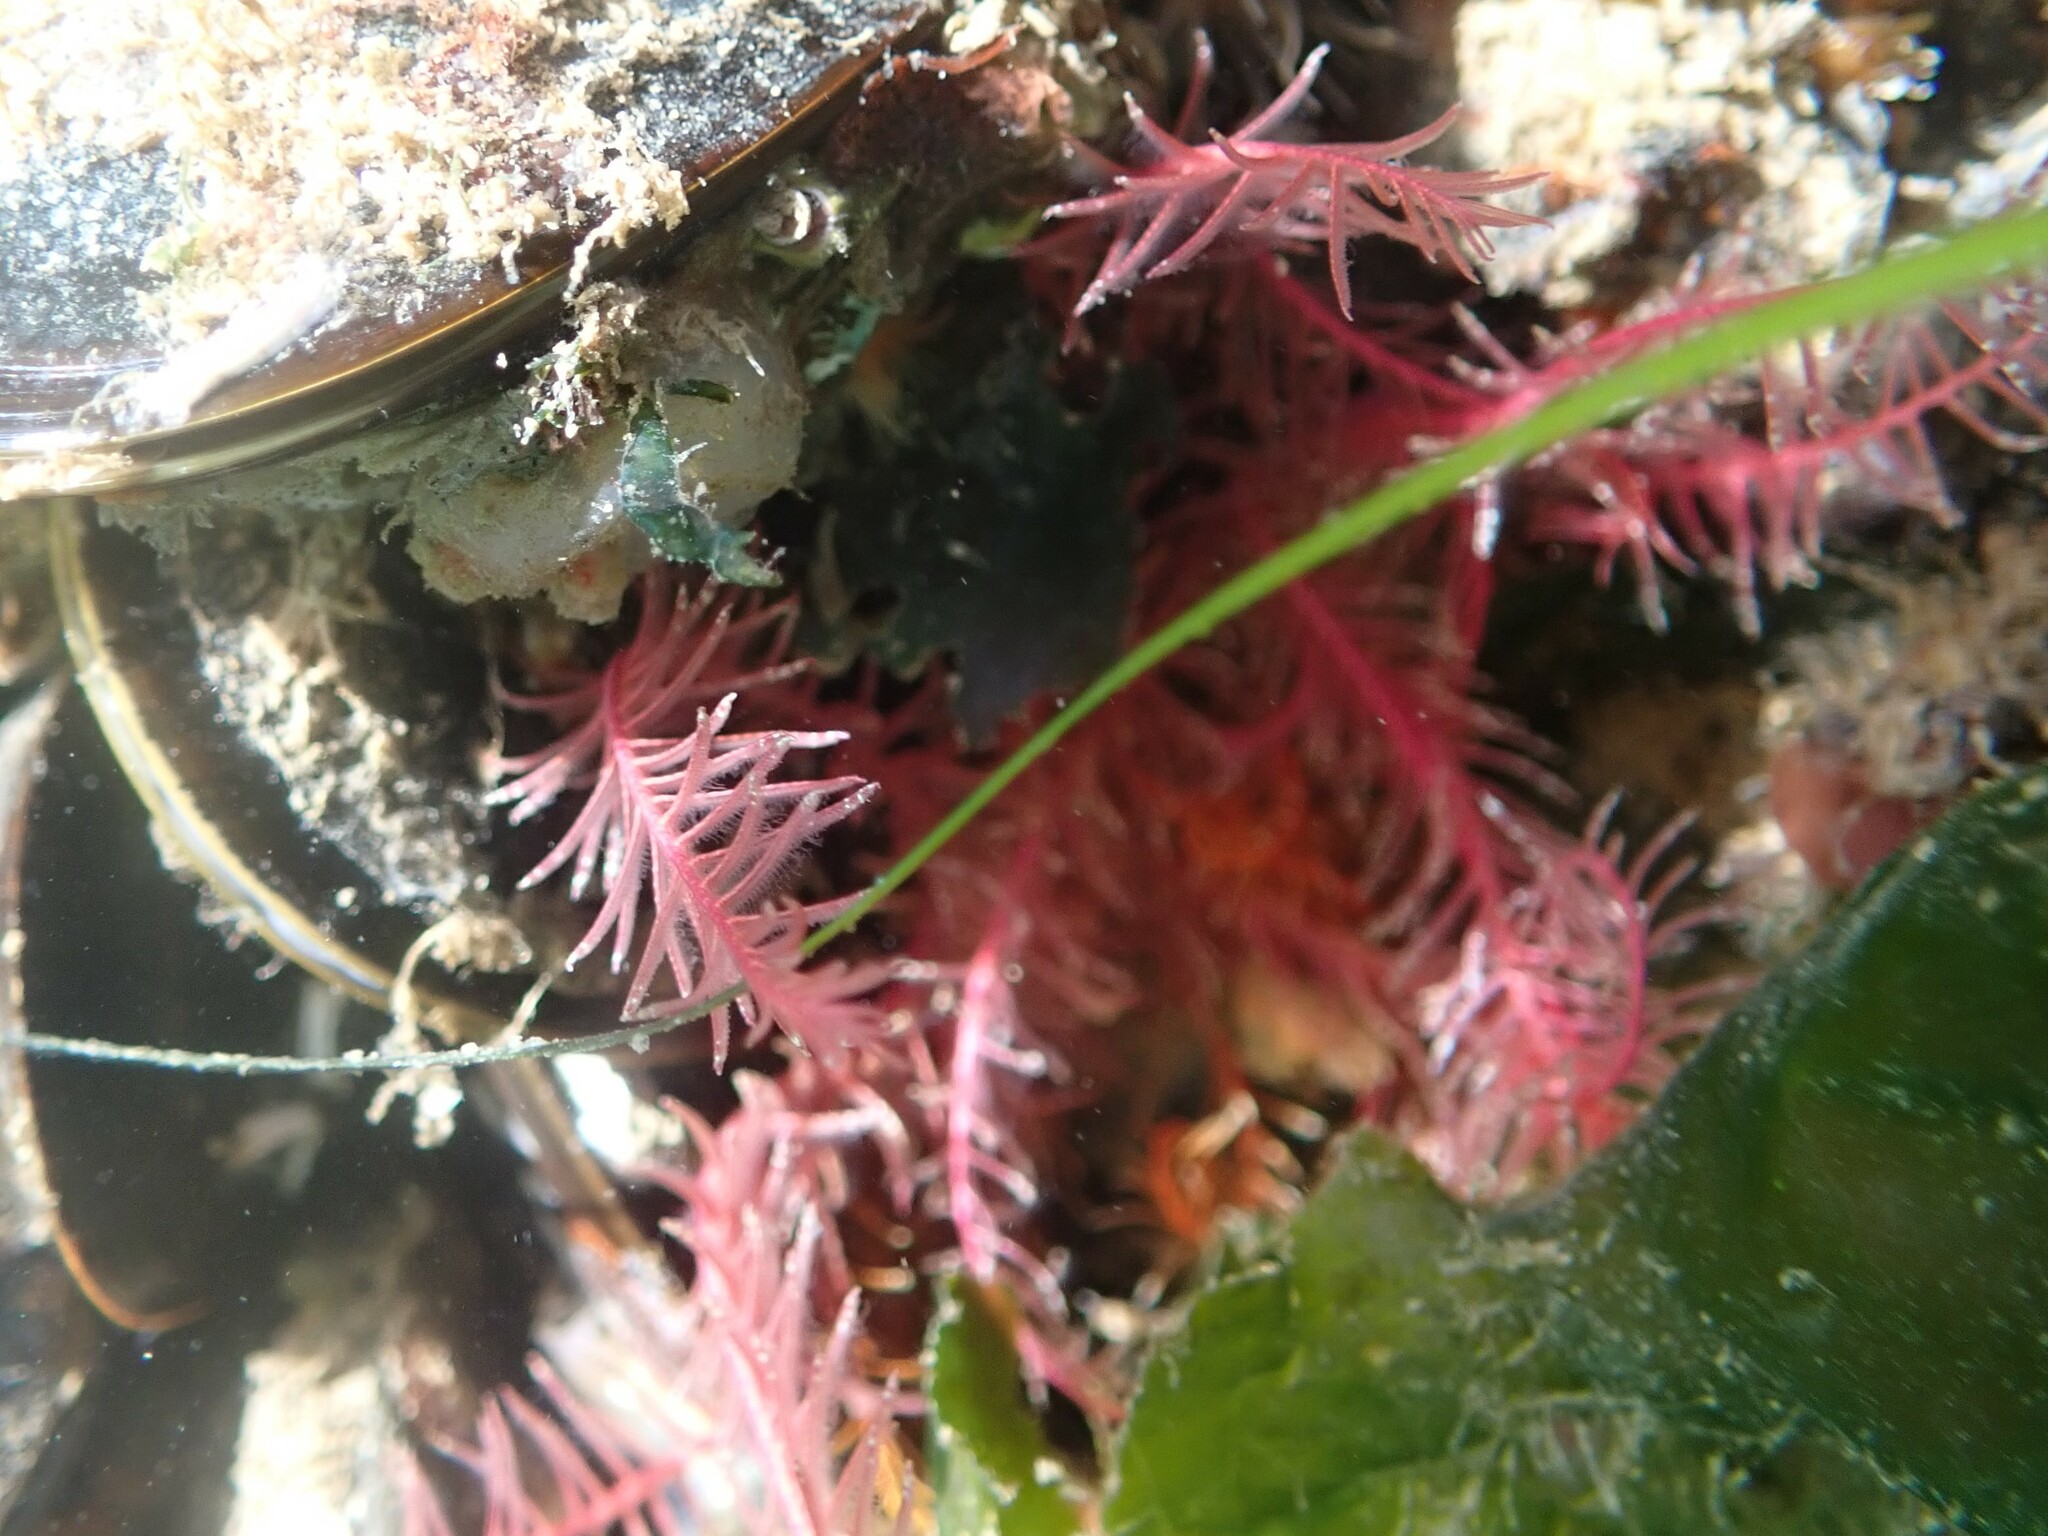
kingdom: Animalia
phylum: Echinodermata
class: Crinoidea
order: Comatulida
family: Antedonidae
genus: Antedon
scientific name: Antedon bifida
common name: Rosy feather-star
